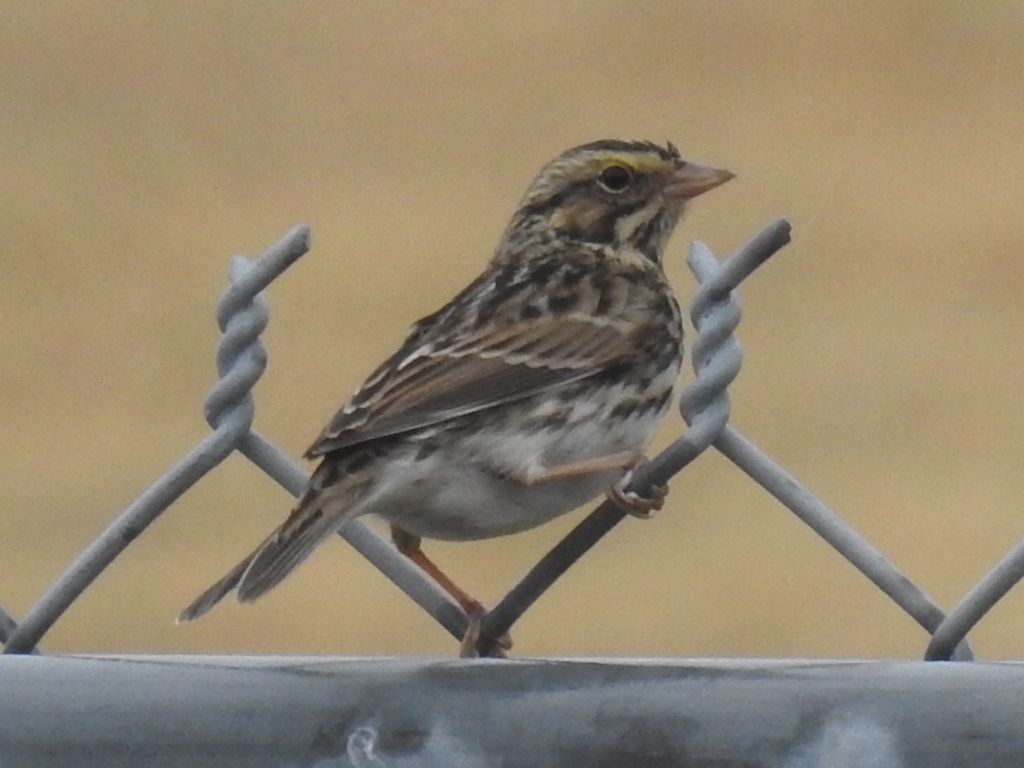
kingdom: Animalia
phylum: Chordata
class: Aves
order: Passeriformes
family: Passerellidae
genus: Passerculus
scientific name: Passerculus sandwichensis
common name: Savannah sparrow
